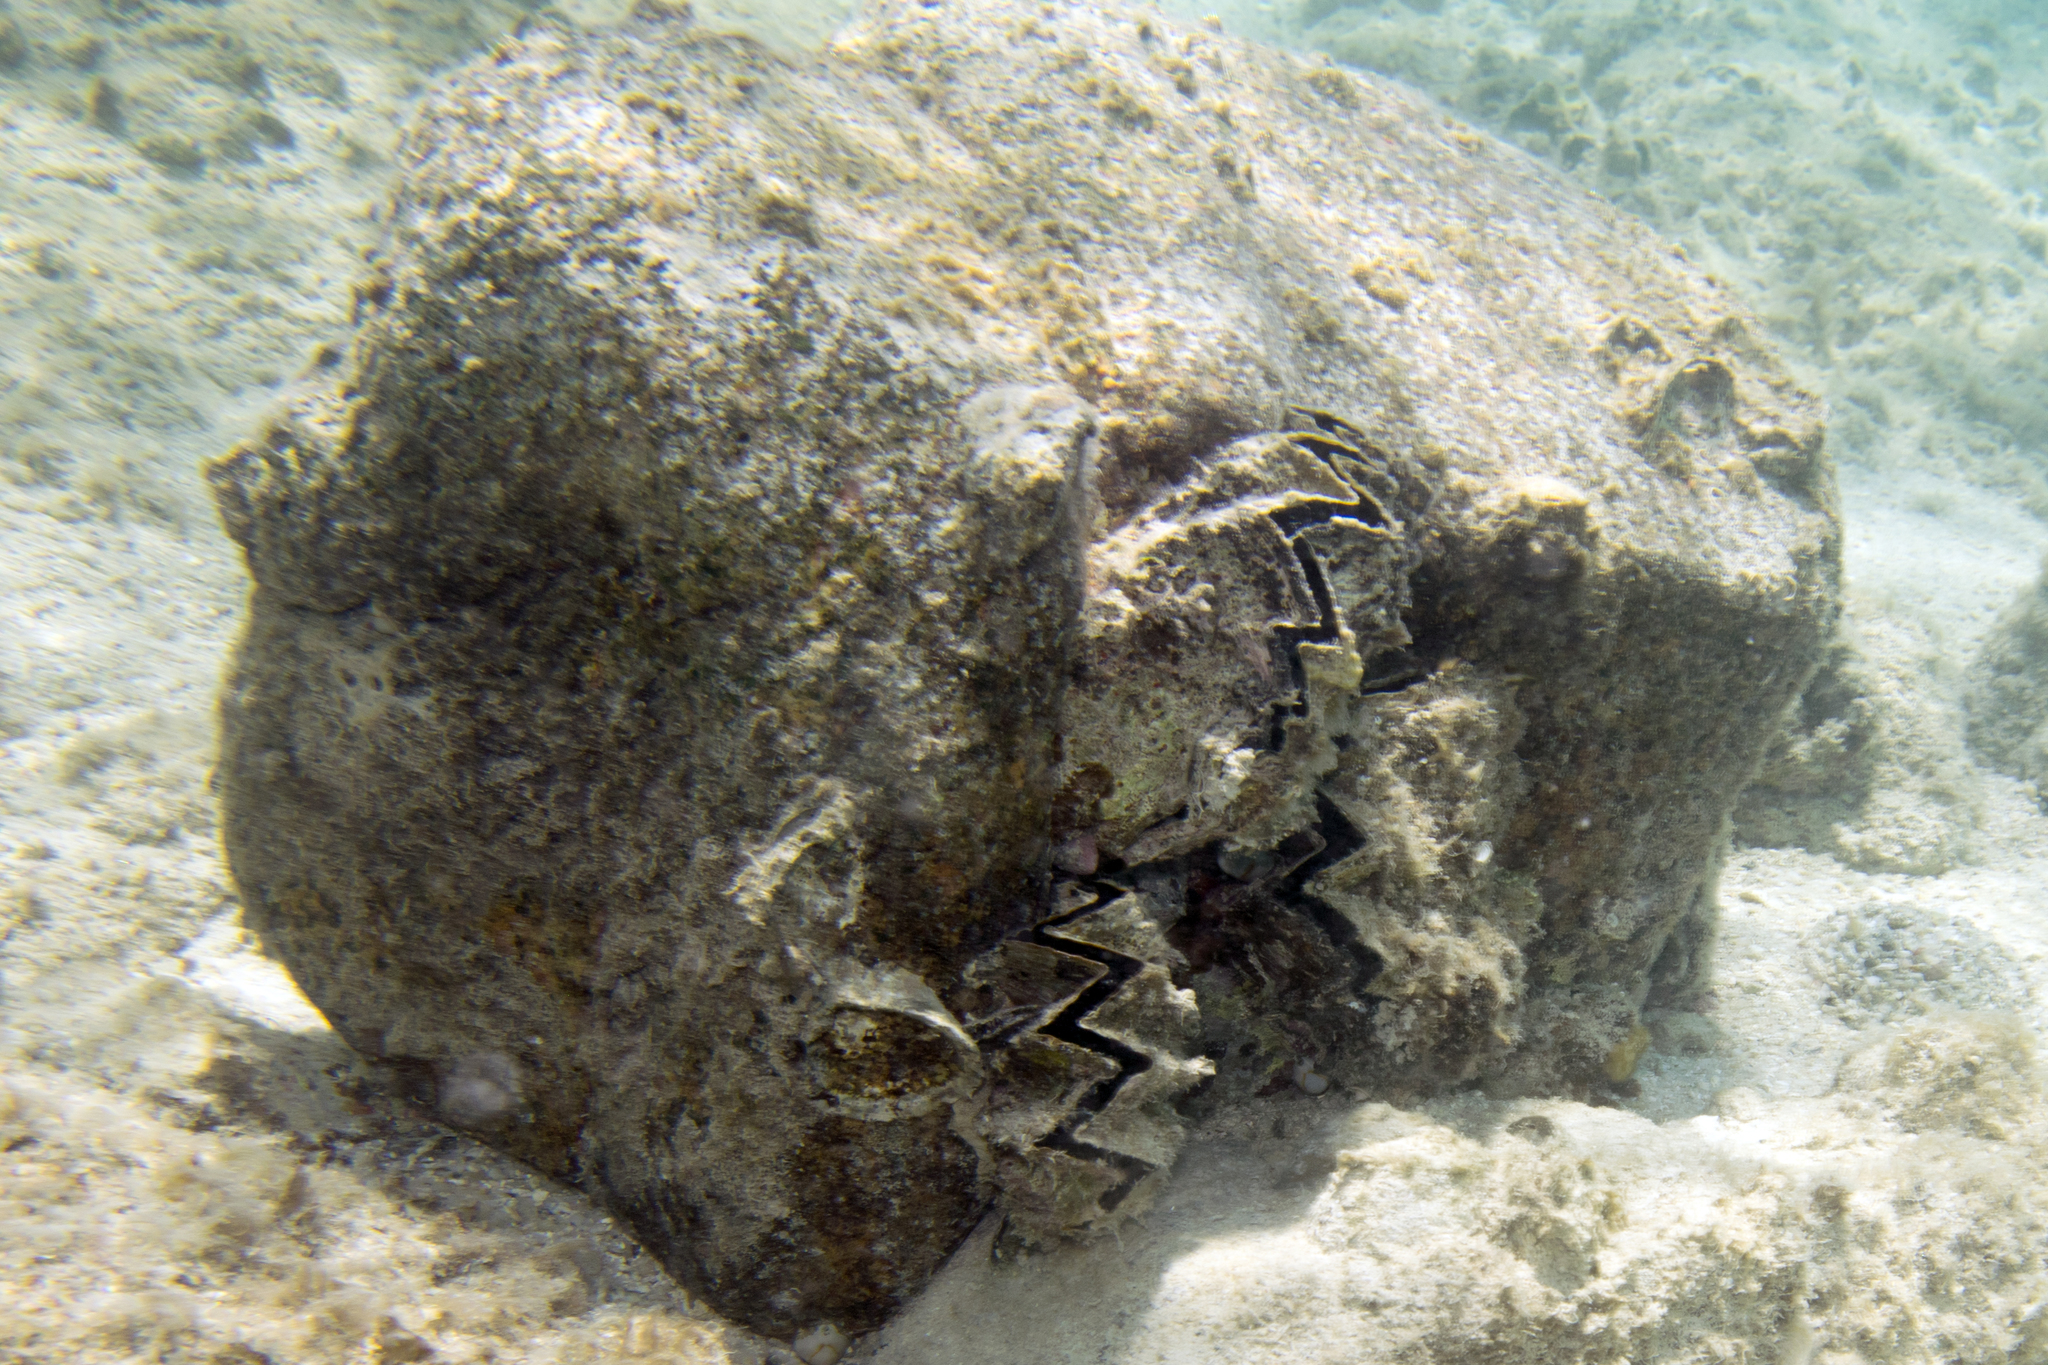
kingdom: Animalia
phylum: Mollusca
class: Bivalvia
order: Ostreida
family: Ostreidae
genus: Lopha
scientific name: Lopha cristagalli
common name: Cock's-comb oyster
